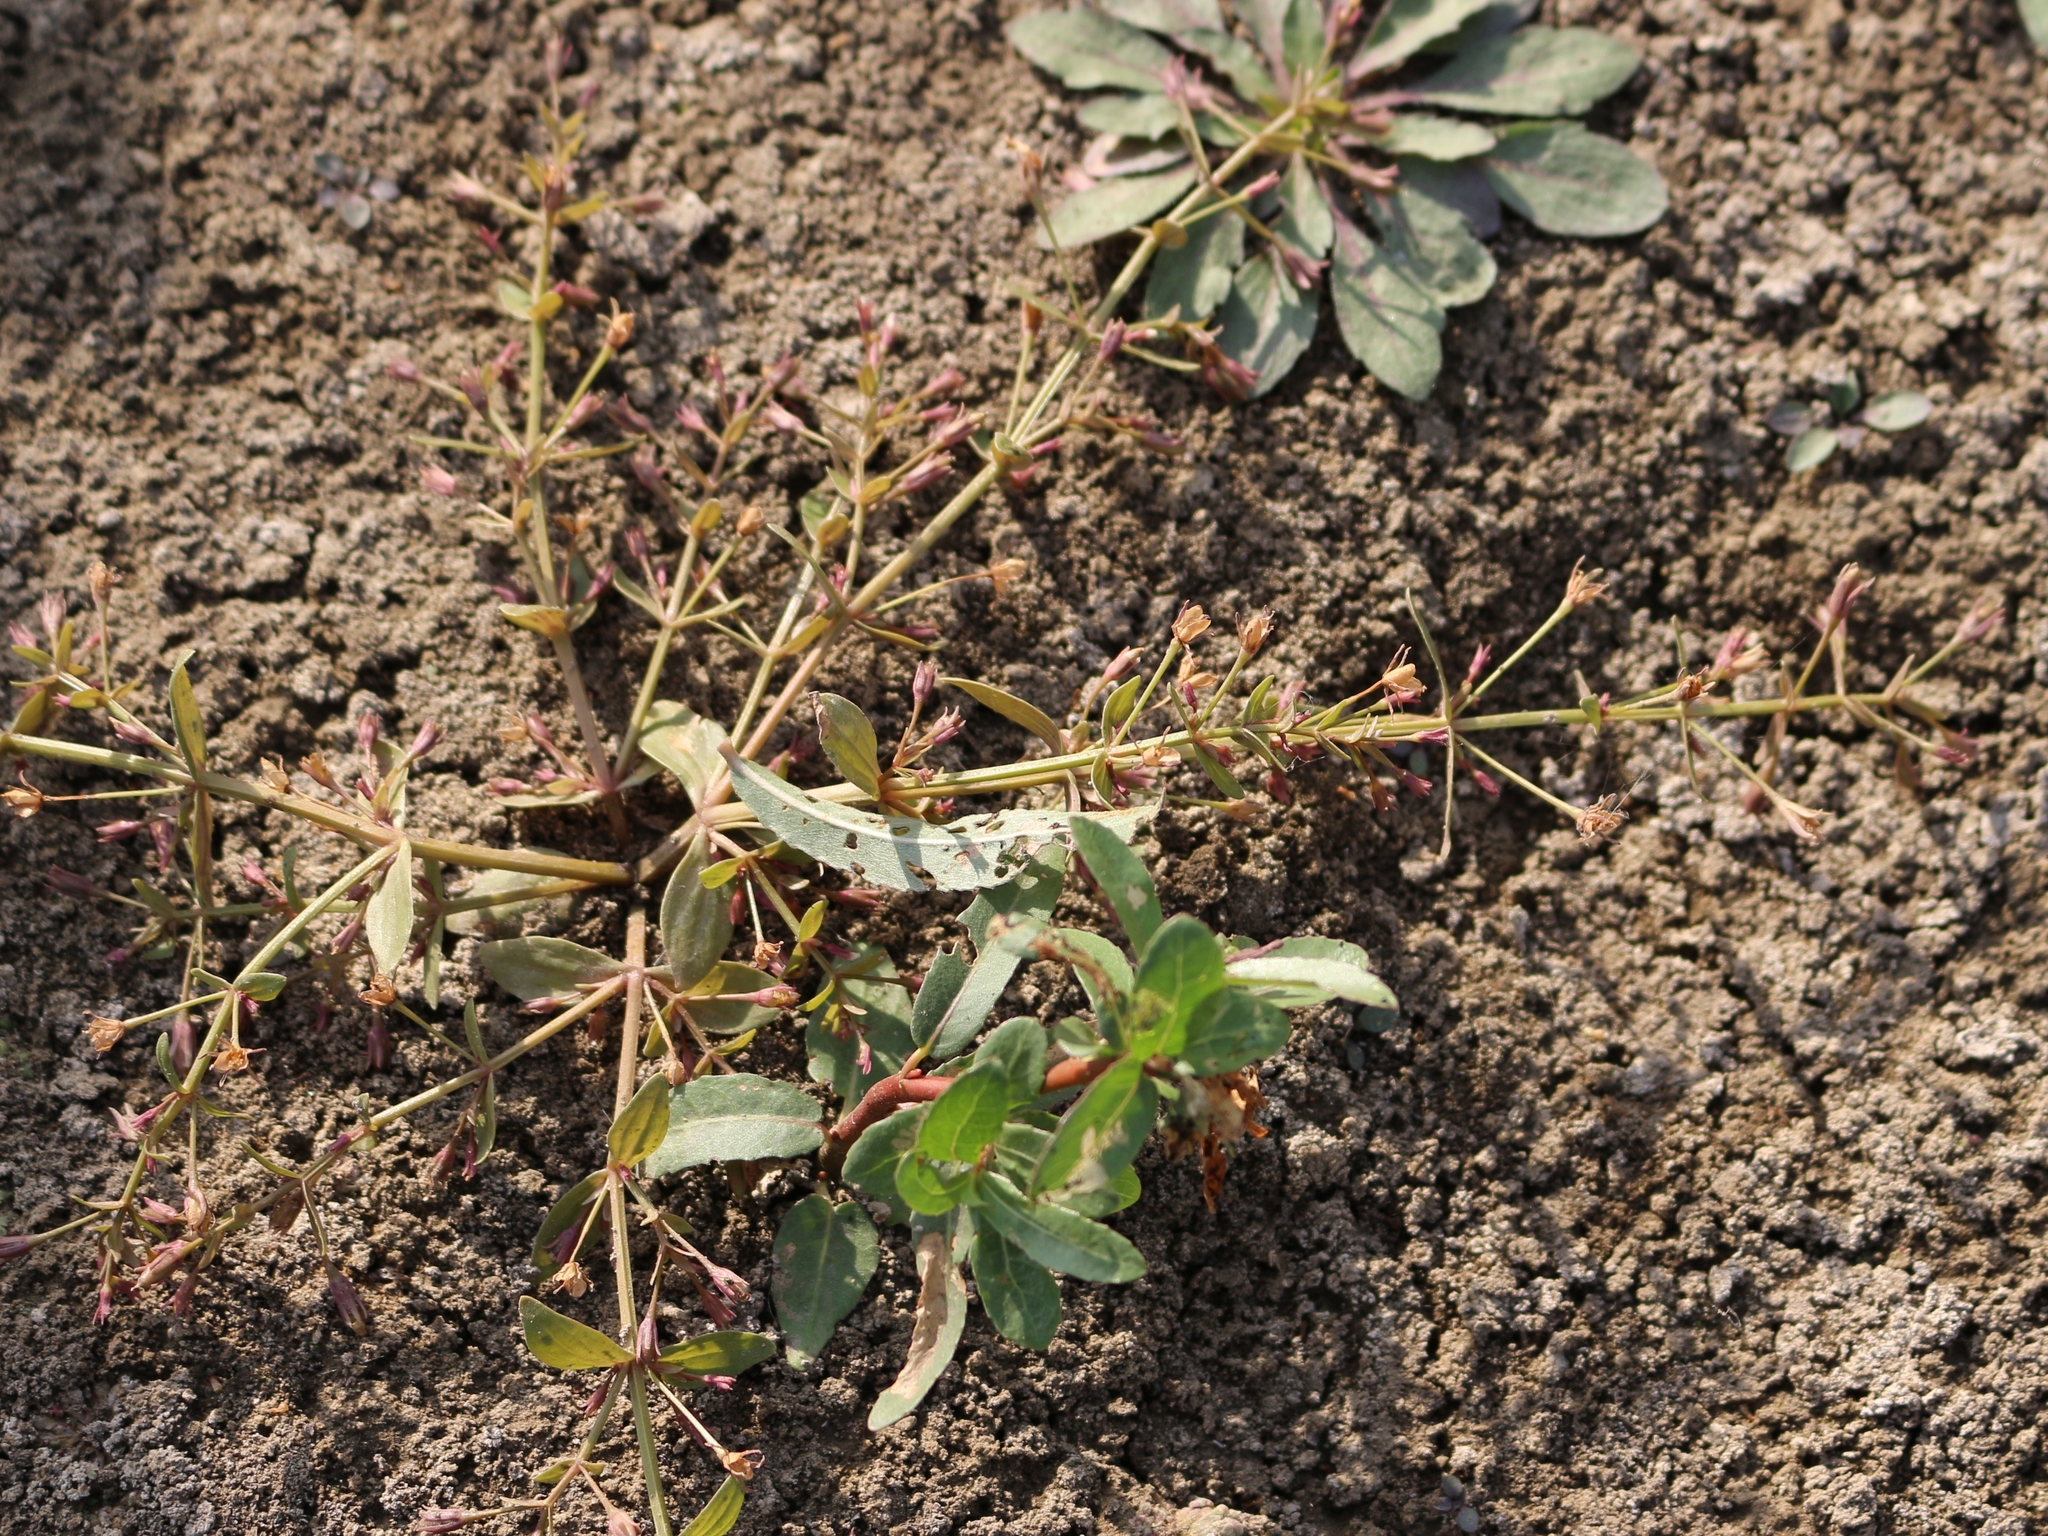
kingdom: Plantae
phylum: Tracheophyta
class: Magnoliopsida
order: Lamiales
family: Linderniaceae
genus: Lindernia
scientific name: Lindernia procumbens
